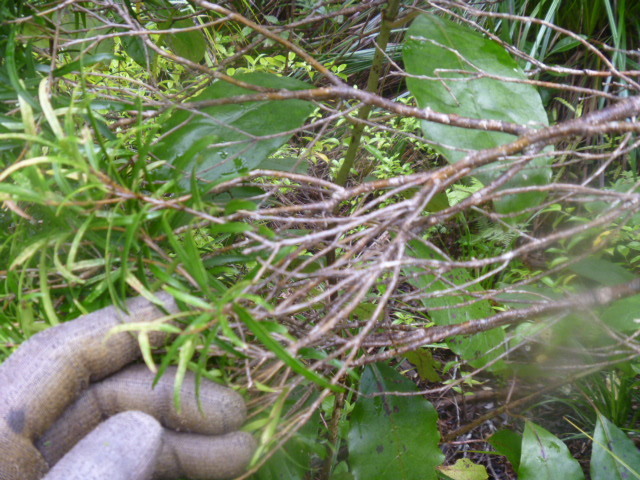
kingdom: Plantae
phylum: Tracheophyta
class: Magnoliopsida
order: Lamiales
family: Oleaceae
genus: Nestegis
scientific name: Nestegis montana
